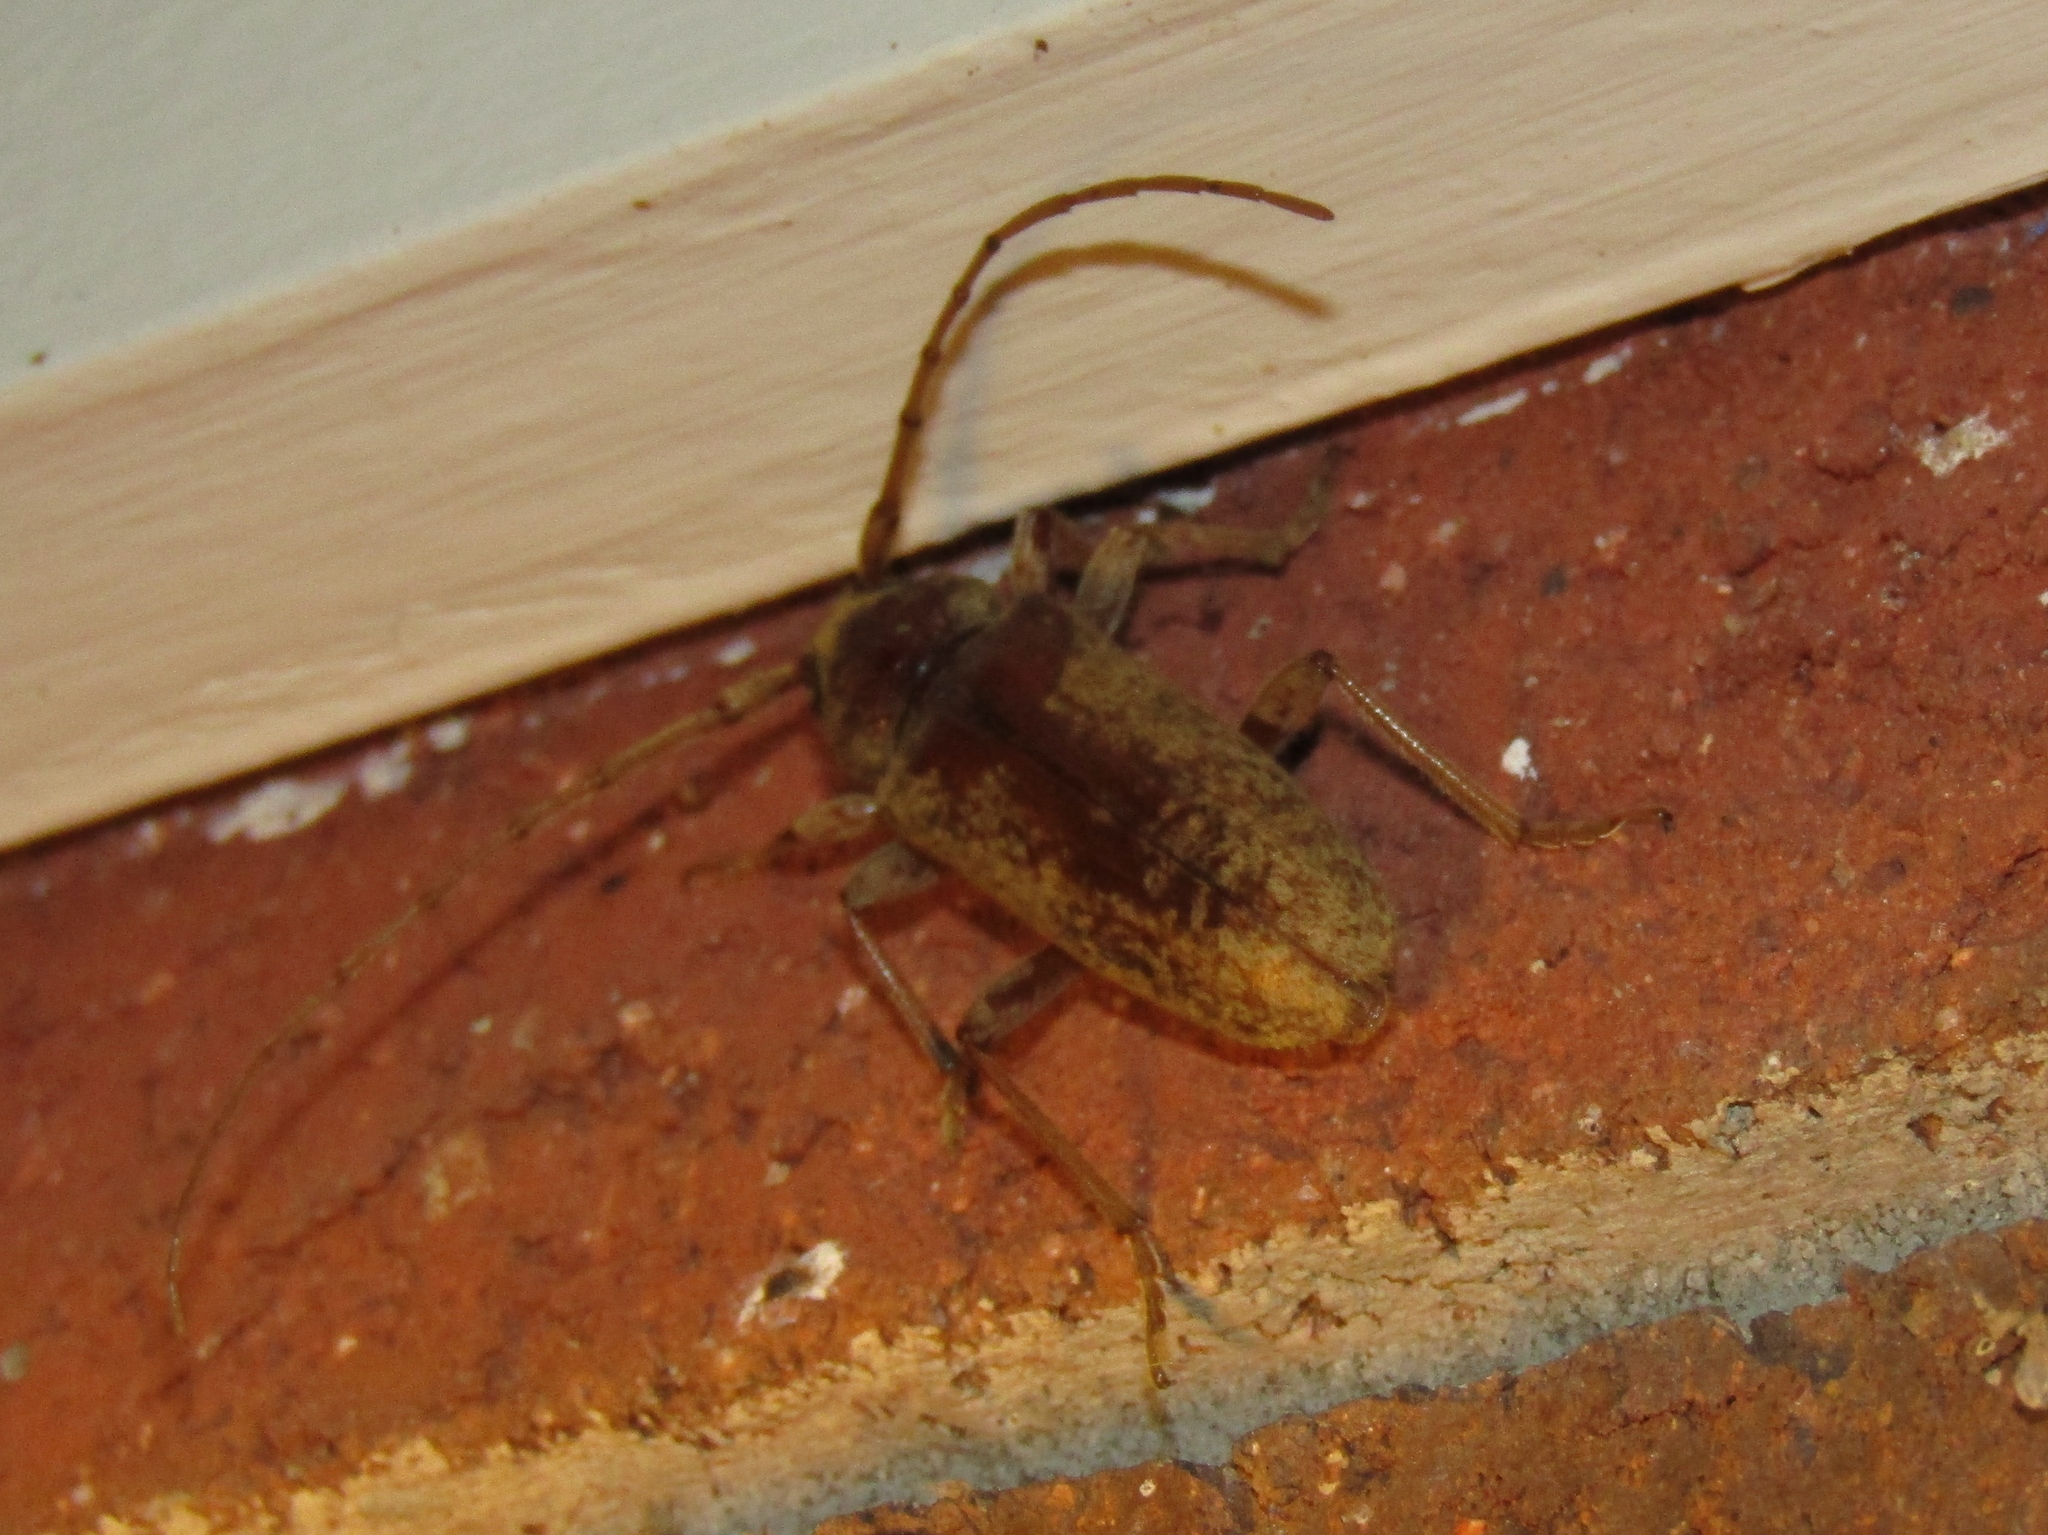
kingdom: Animalia
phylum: Arthropoda
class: Insecta
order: Coleoptera
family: Cerambycidae
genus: Enaphalodes
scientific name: Enaphalodes rufulus
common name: Red oak borer
